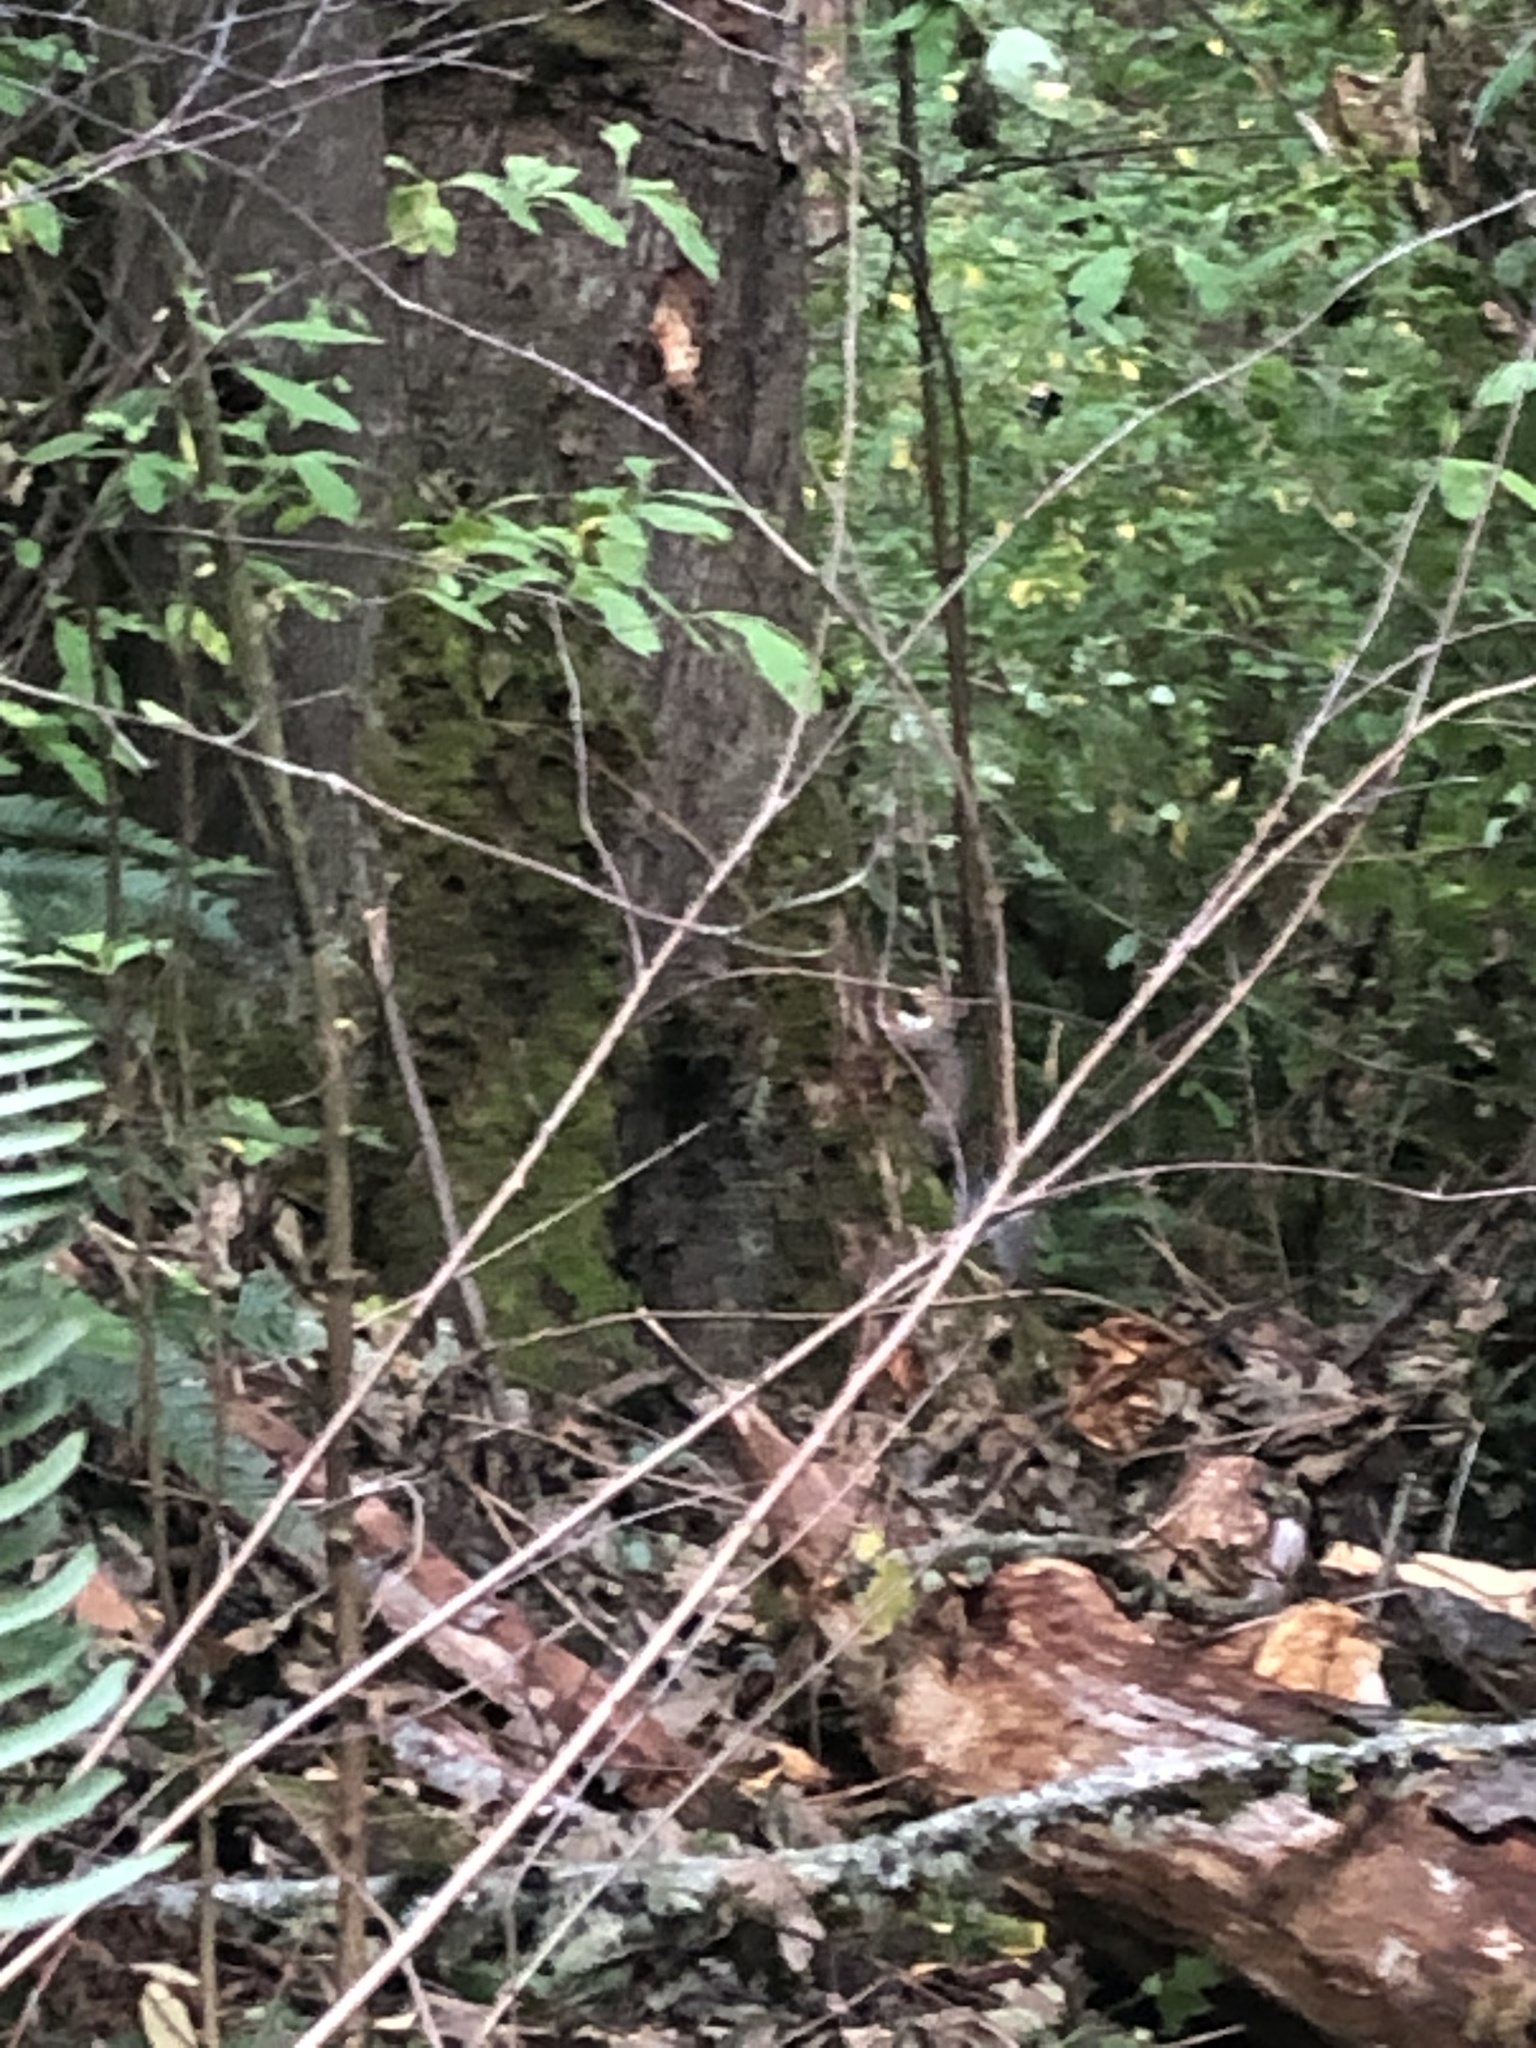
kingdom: Animalia
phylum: Chordata
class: Mammalia
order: Rodentia
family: Sciuridae
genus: Sciurus
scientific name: Sciurus carolinensis
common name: Eastern gray squirrel
